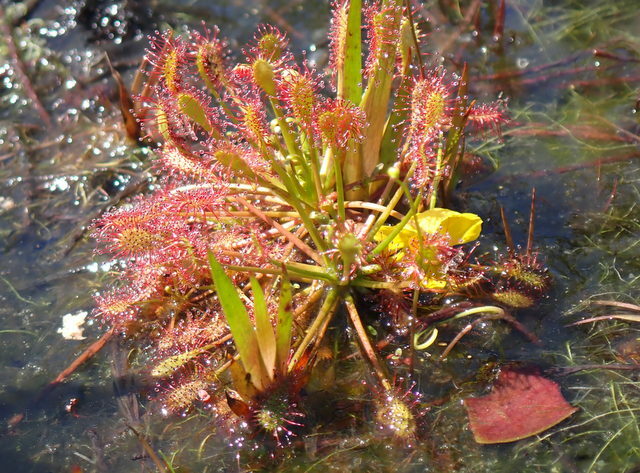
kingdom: Plantae
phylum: Tracheophyta
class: Magnoliopsida
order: Caryophyllales
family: Droseraceae
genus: Drosera
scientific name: Drosera intermedia
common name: Oblong-leaved sundew
